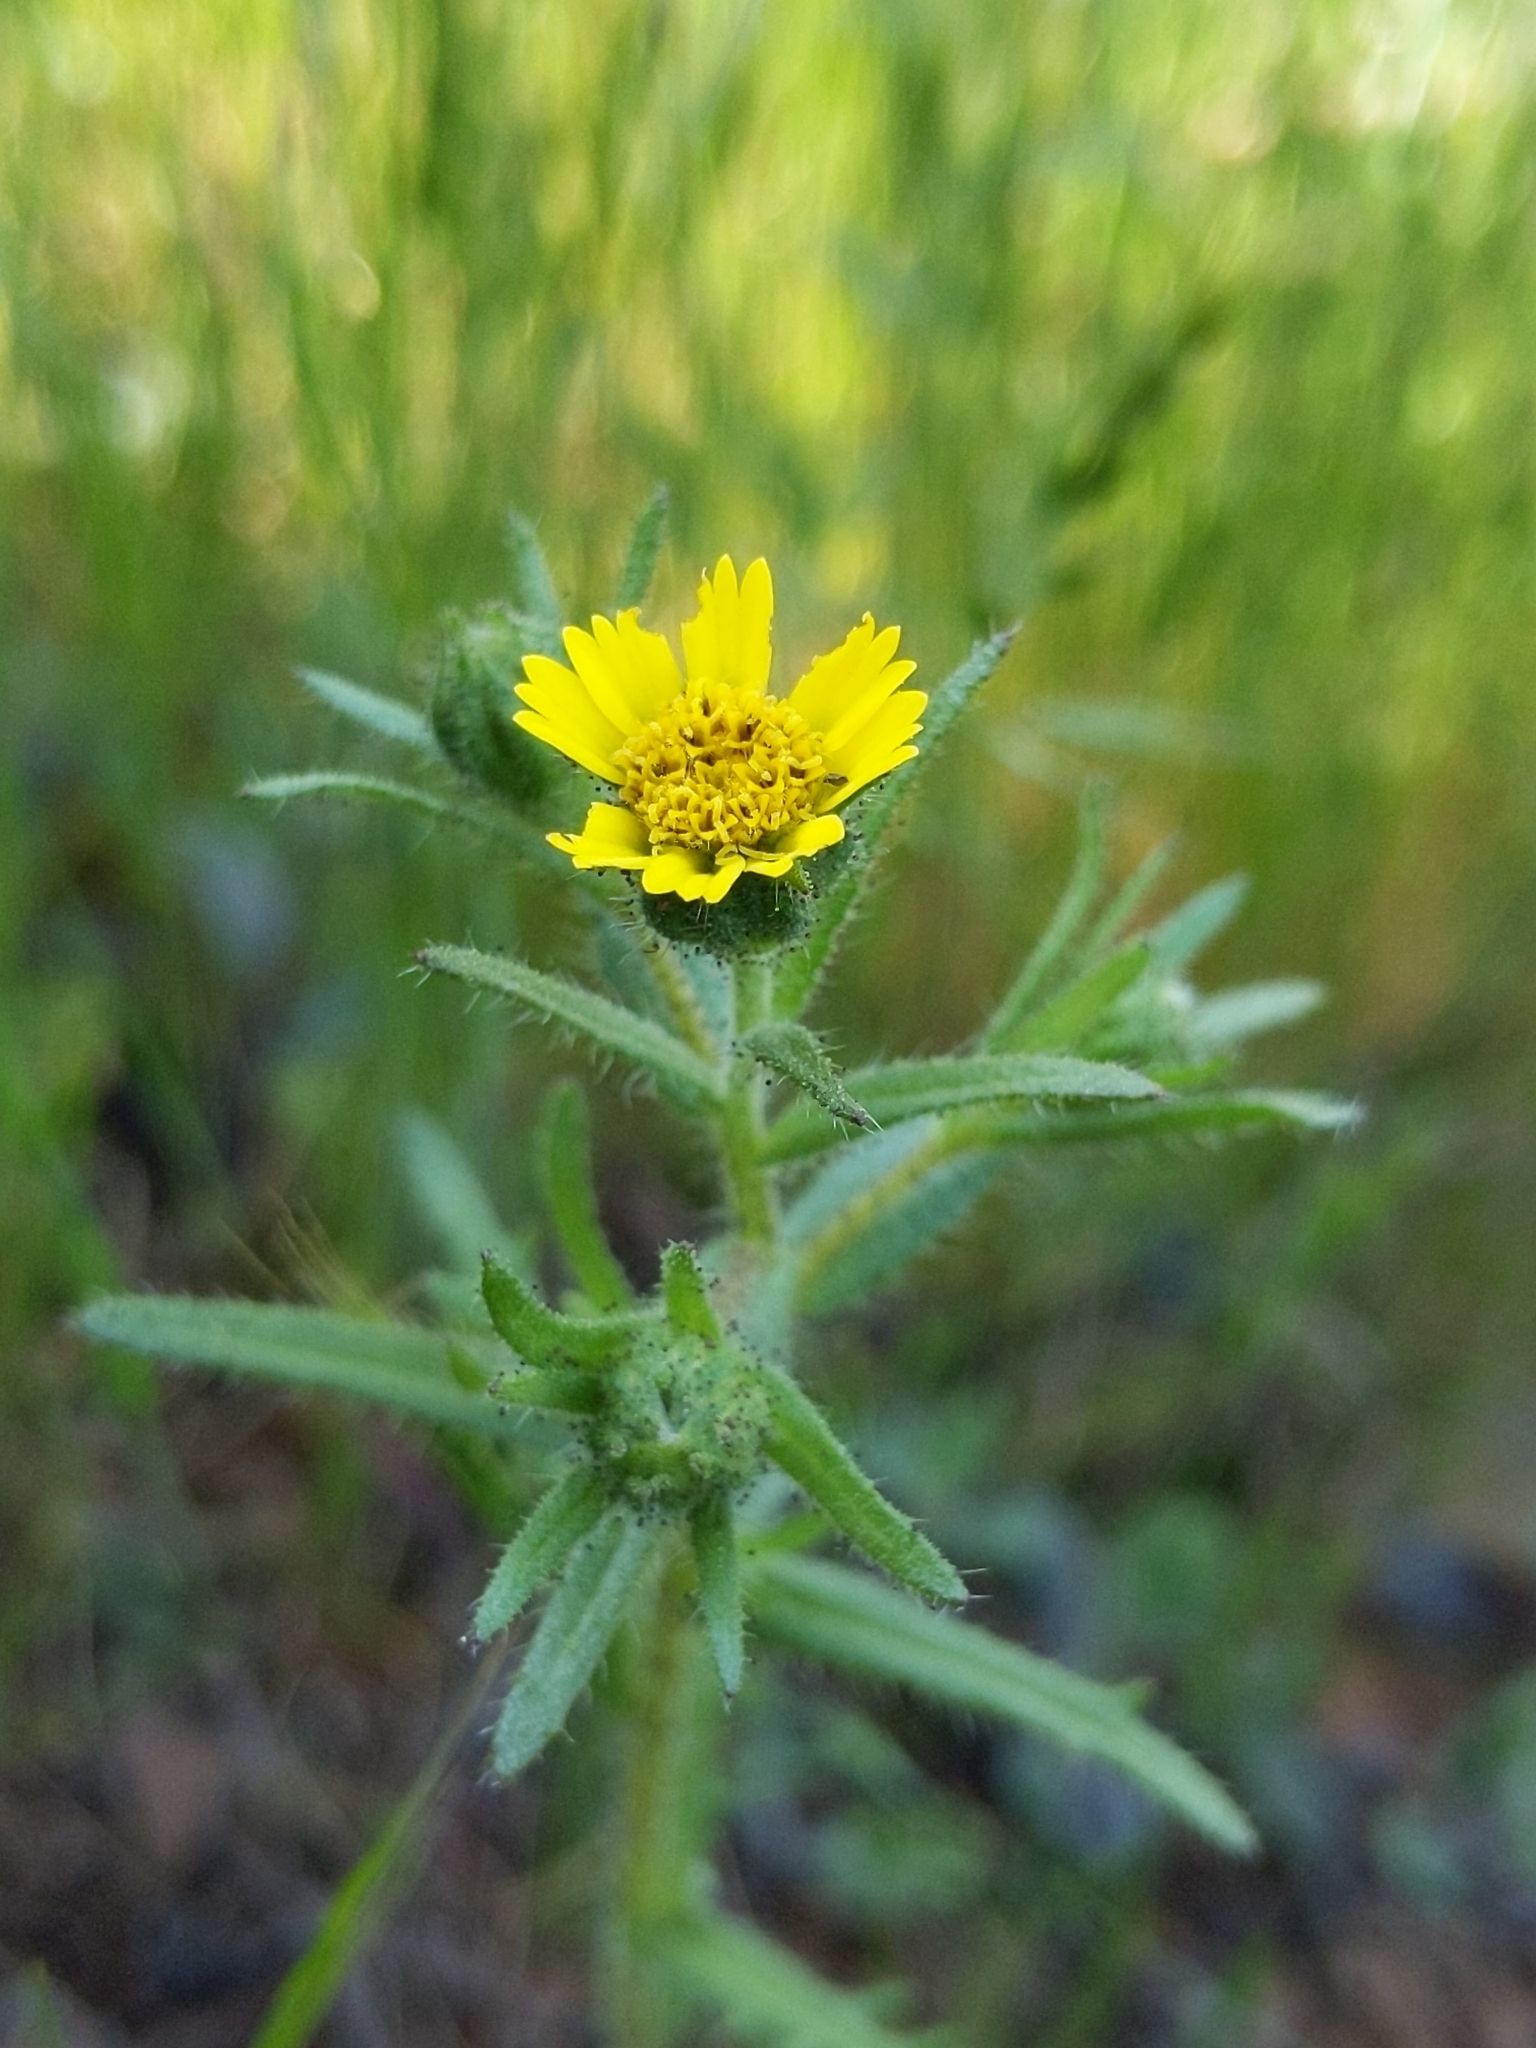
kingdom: Plantae
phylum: Tracheophyta
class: Magnoliopsida
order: Asterales
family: Asteraceae
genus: Layia
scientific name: Layia hieracioides
